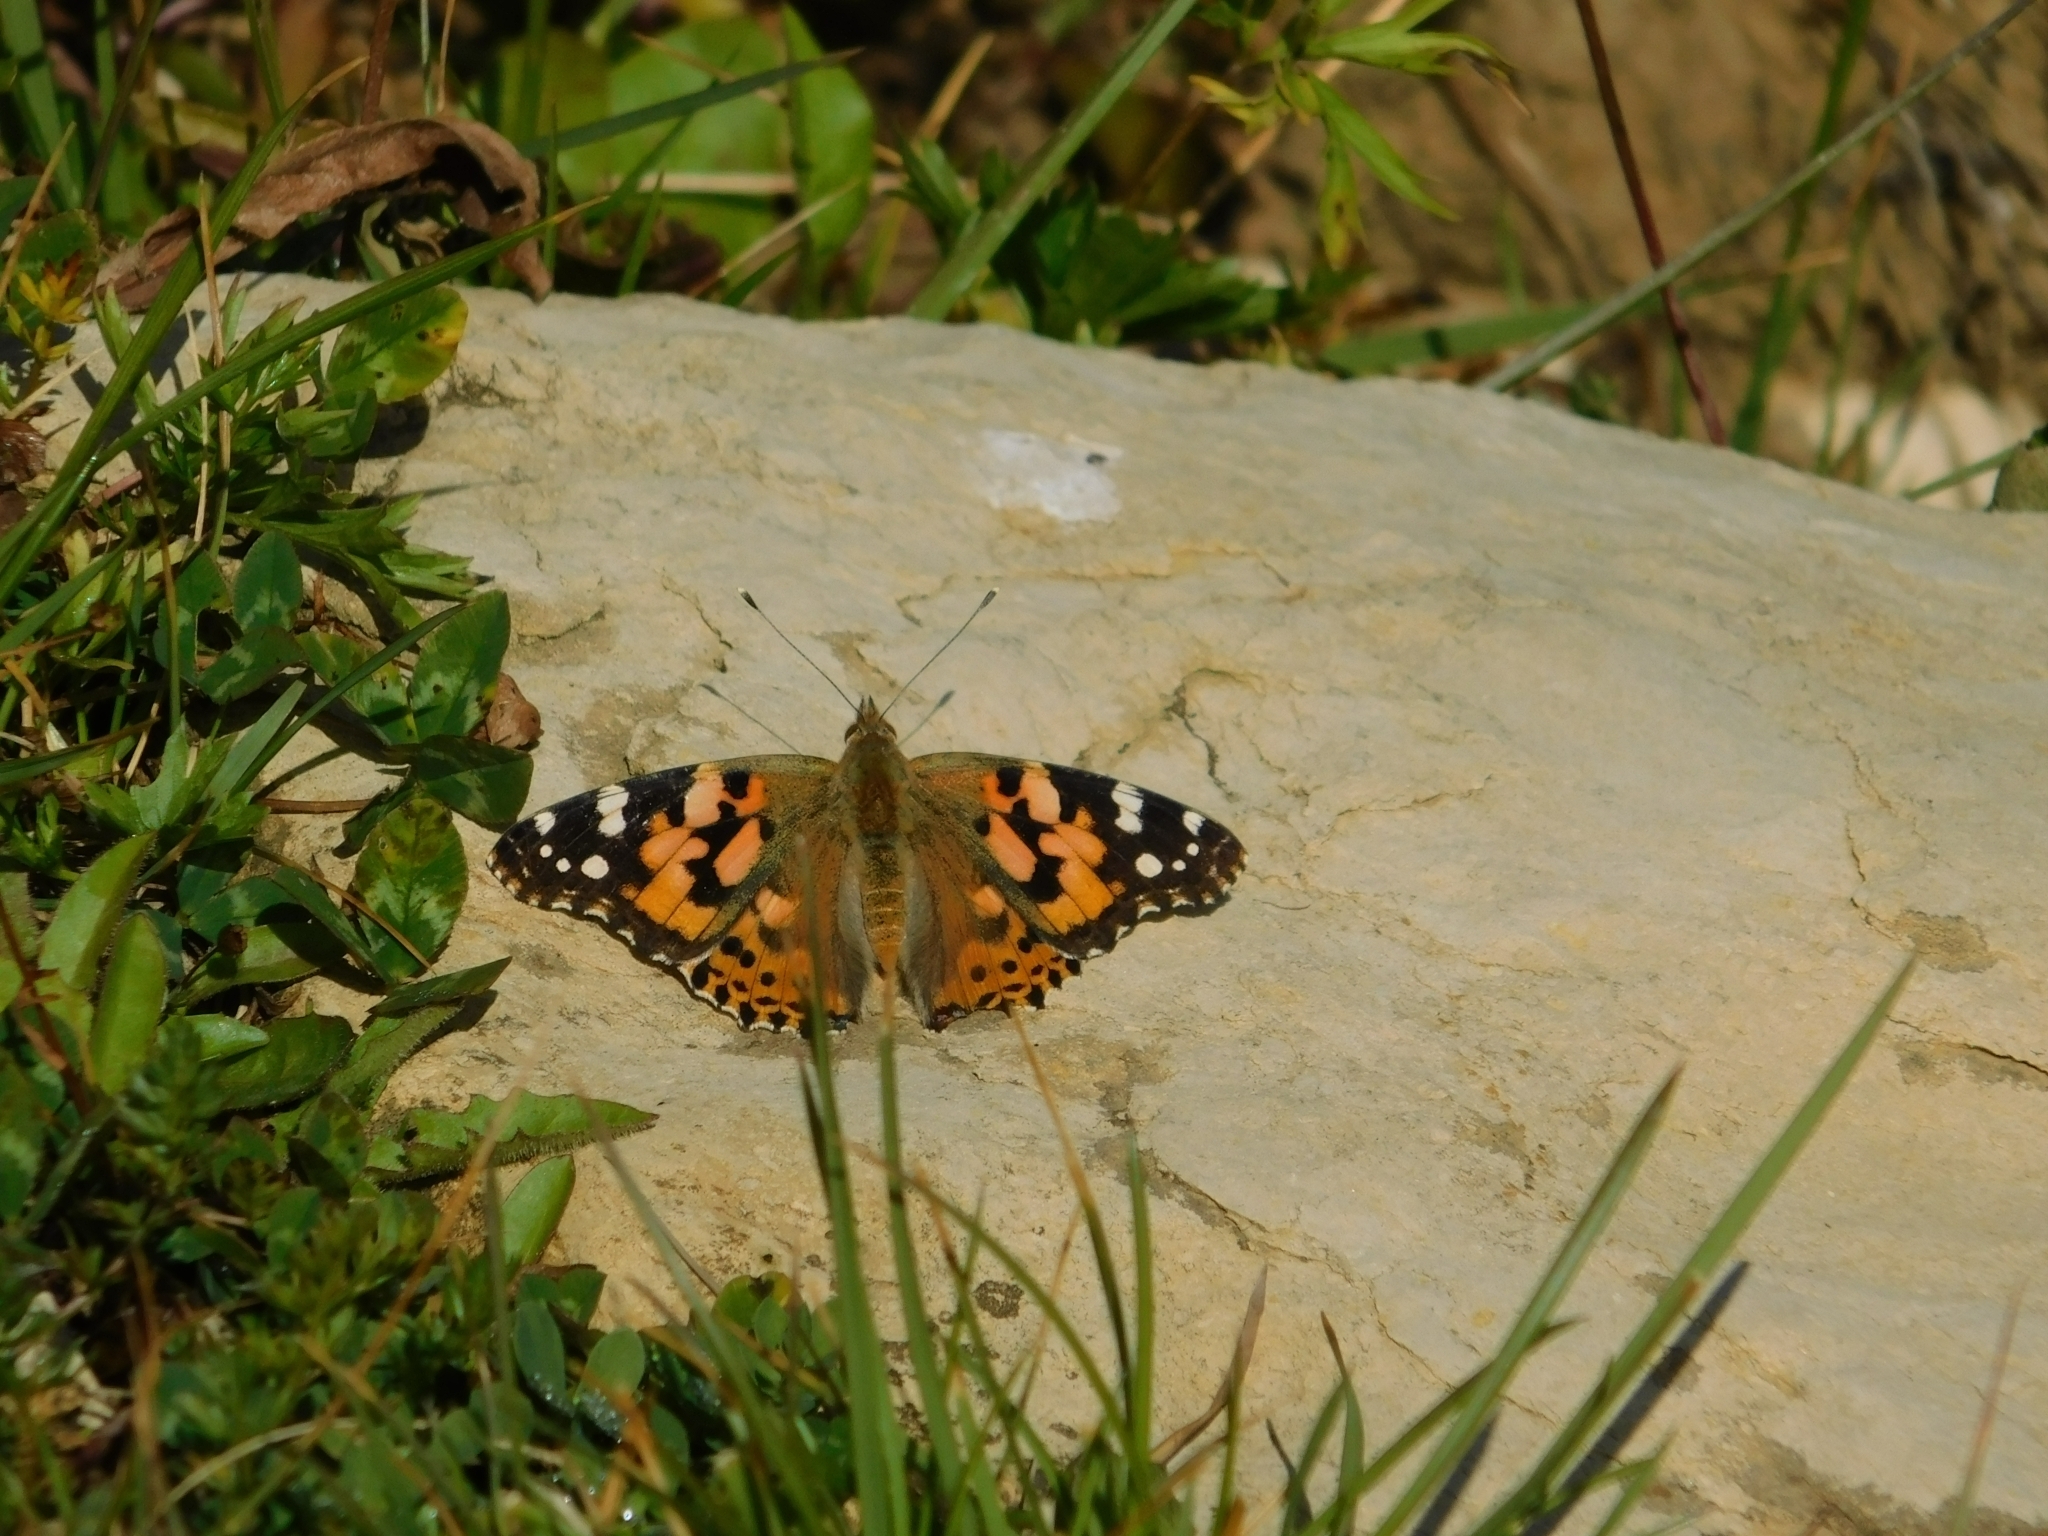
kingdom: Animalia
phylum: Arthropoda
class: Insecta
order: Lepidoptera
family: Nymphalidae
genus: Vanessa
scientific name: Vanessa cardui
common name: Painted lady
